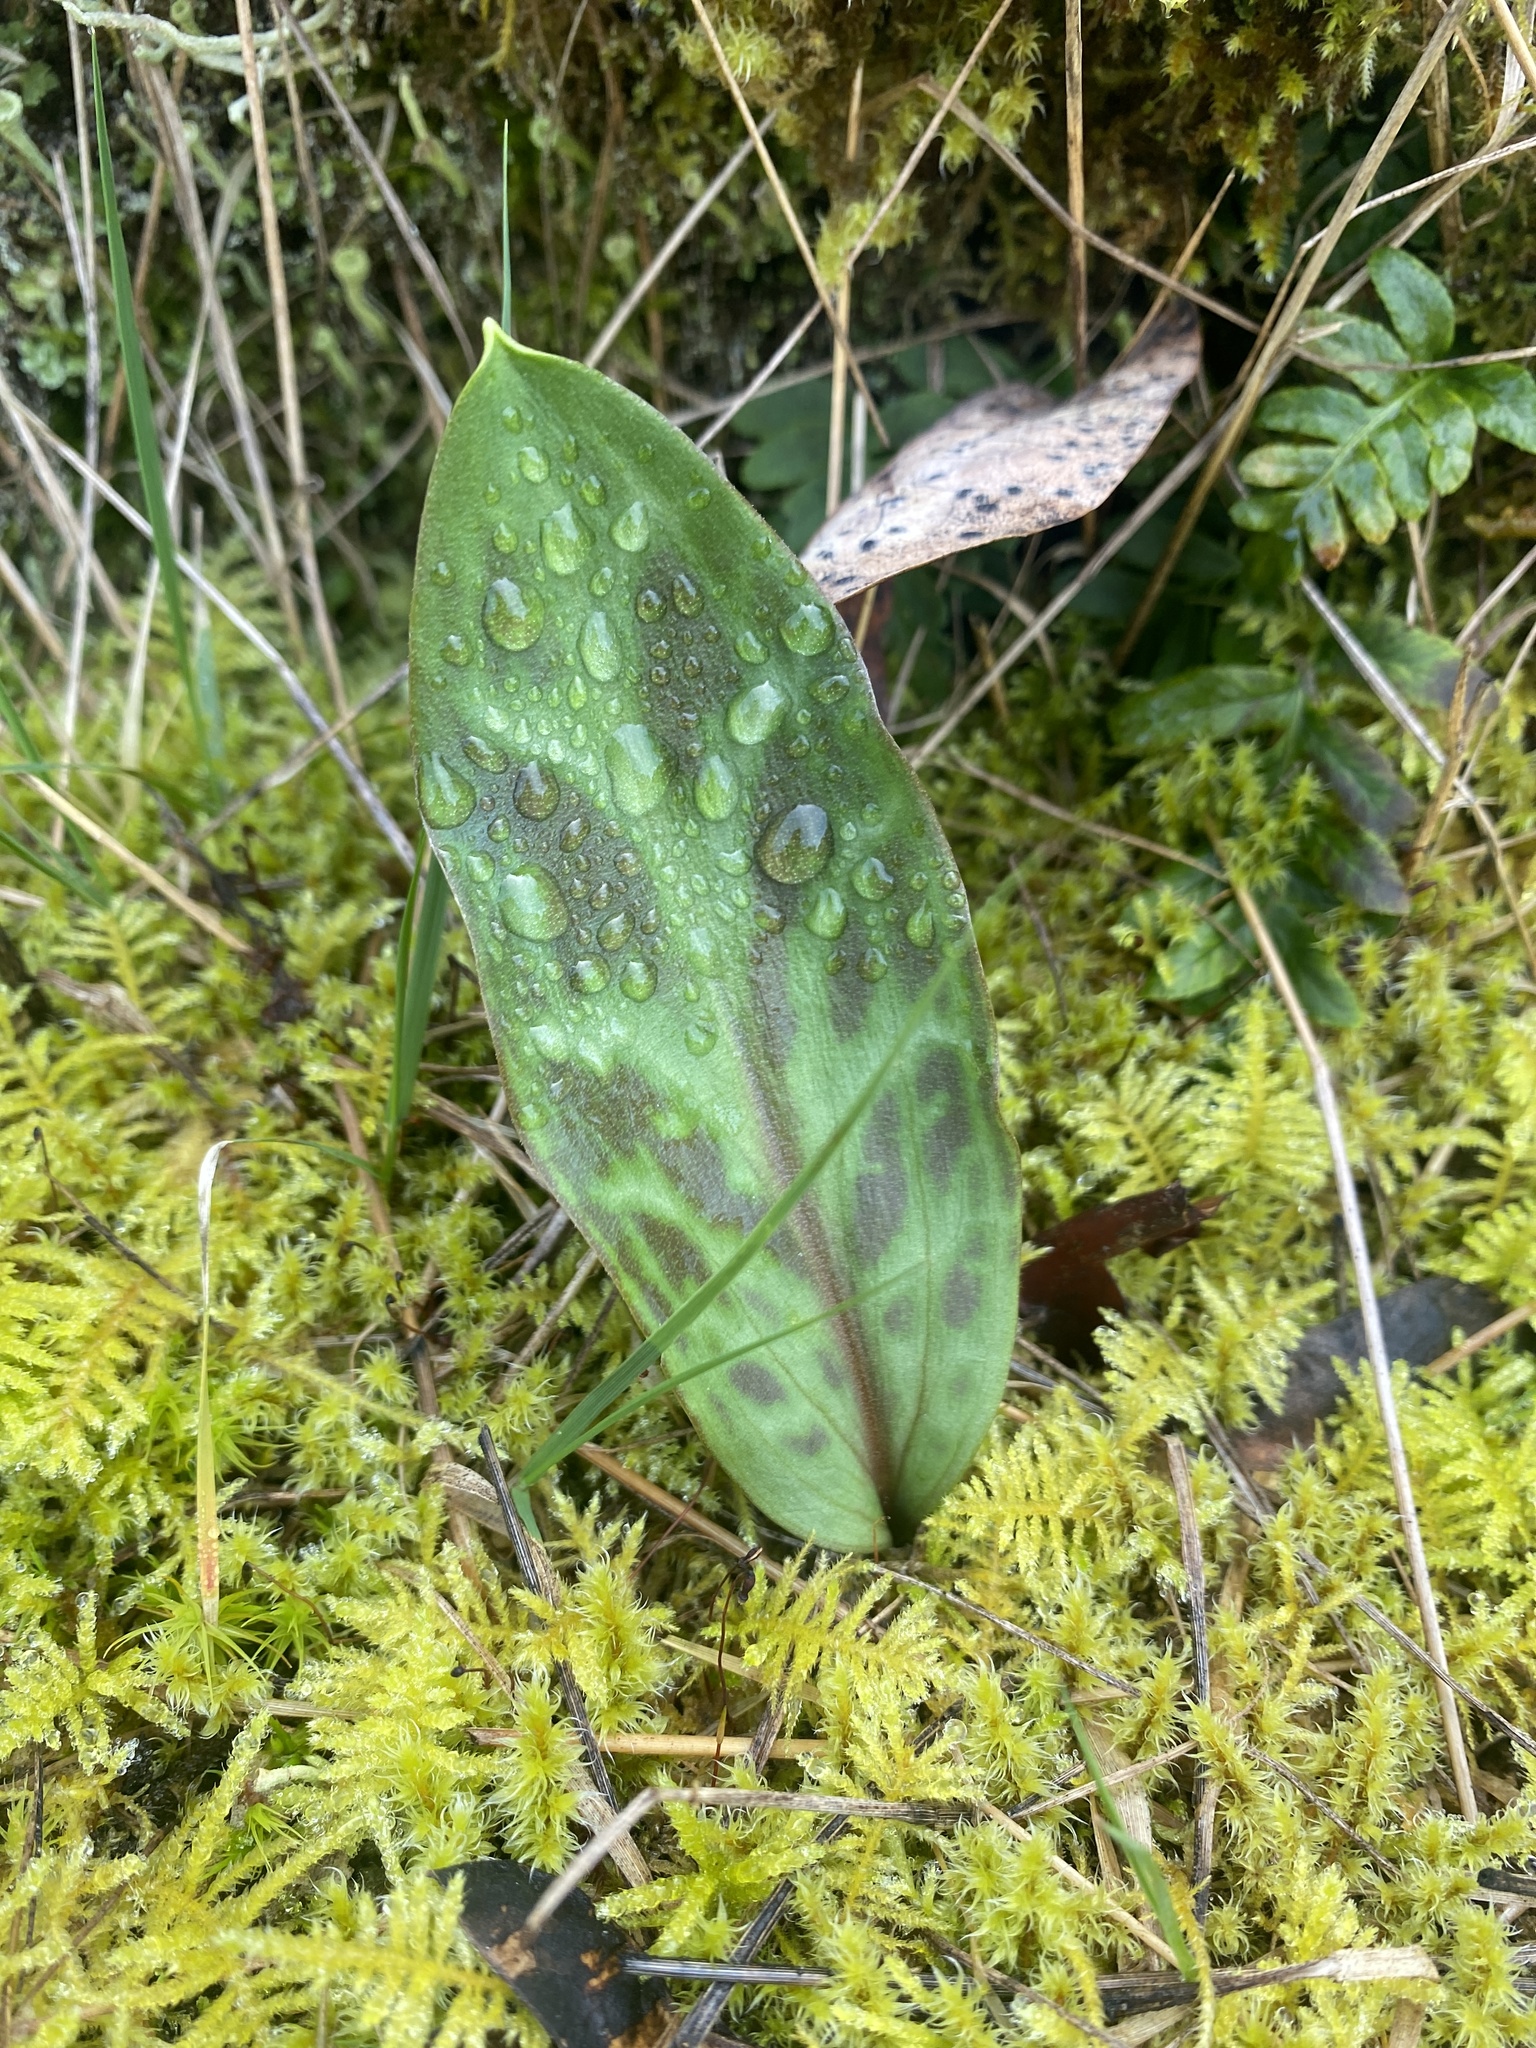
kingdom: Plantae
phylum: Tracheophyta
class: Liliopsida
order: Liliales
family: Liliaceae
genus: Erythronium
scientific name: Erythronium oregonum
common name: Giant adder's-tongue
